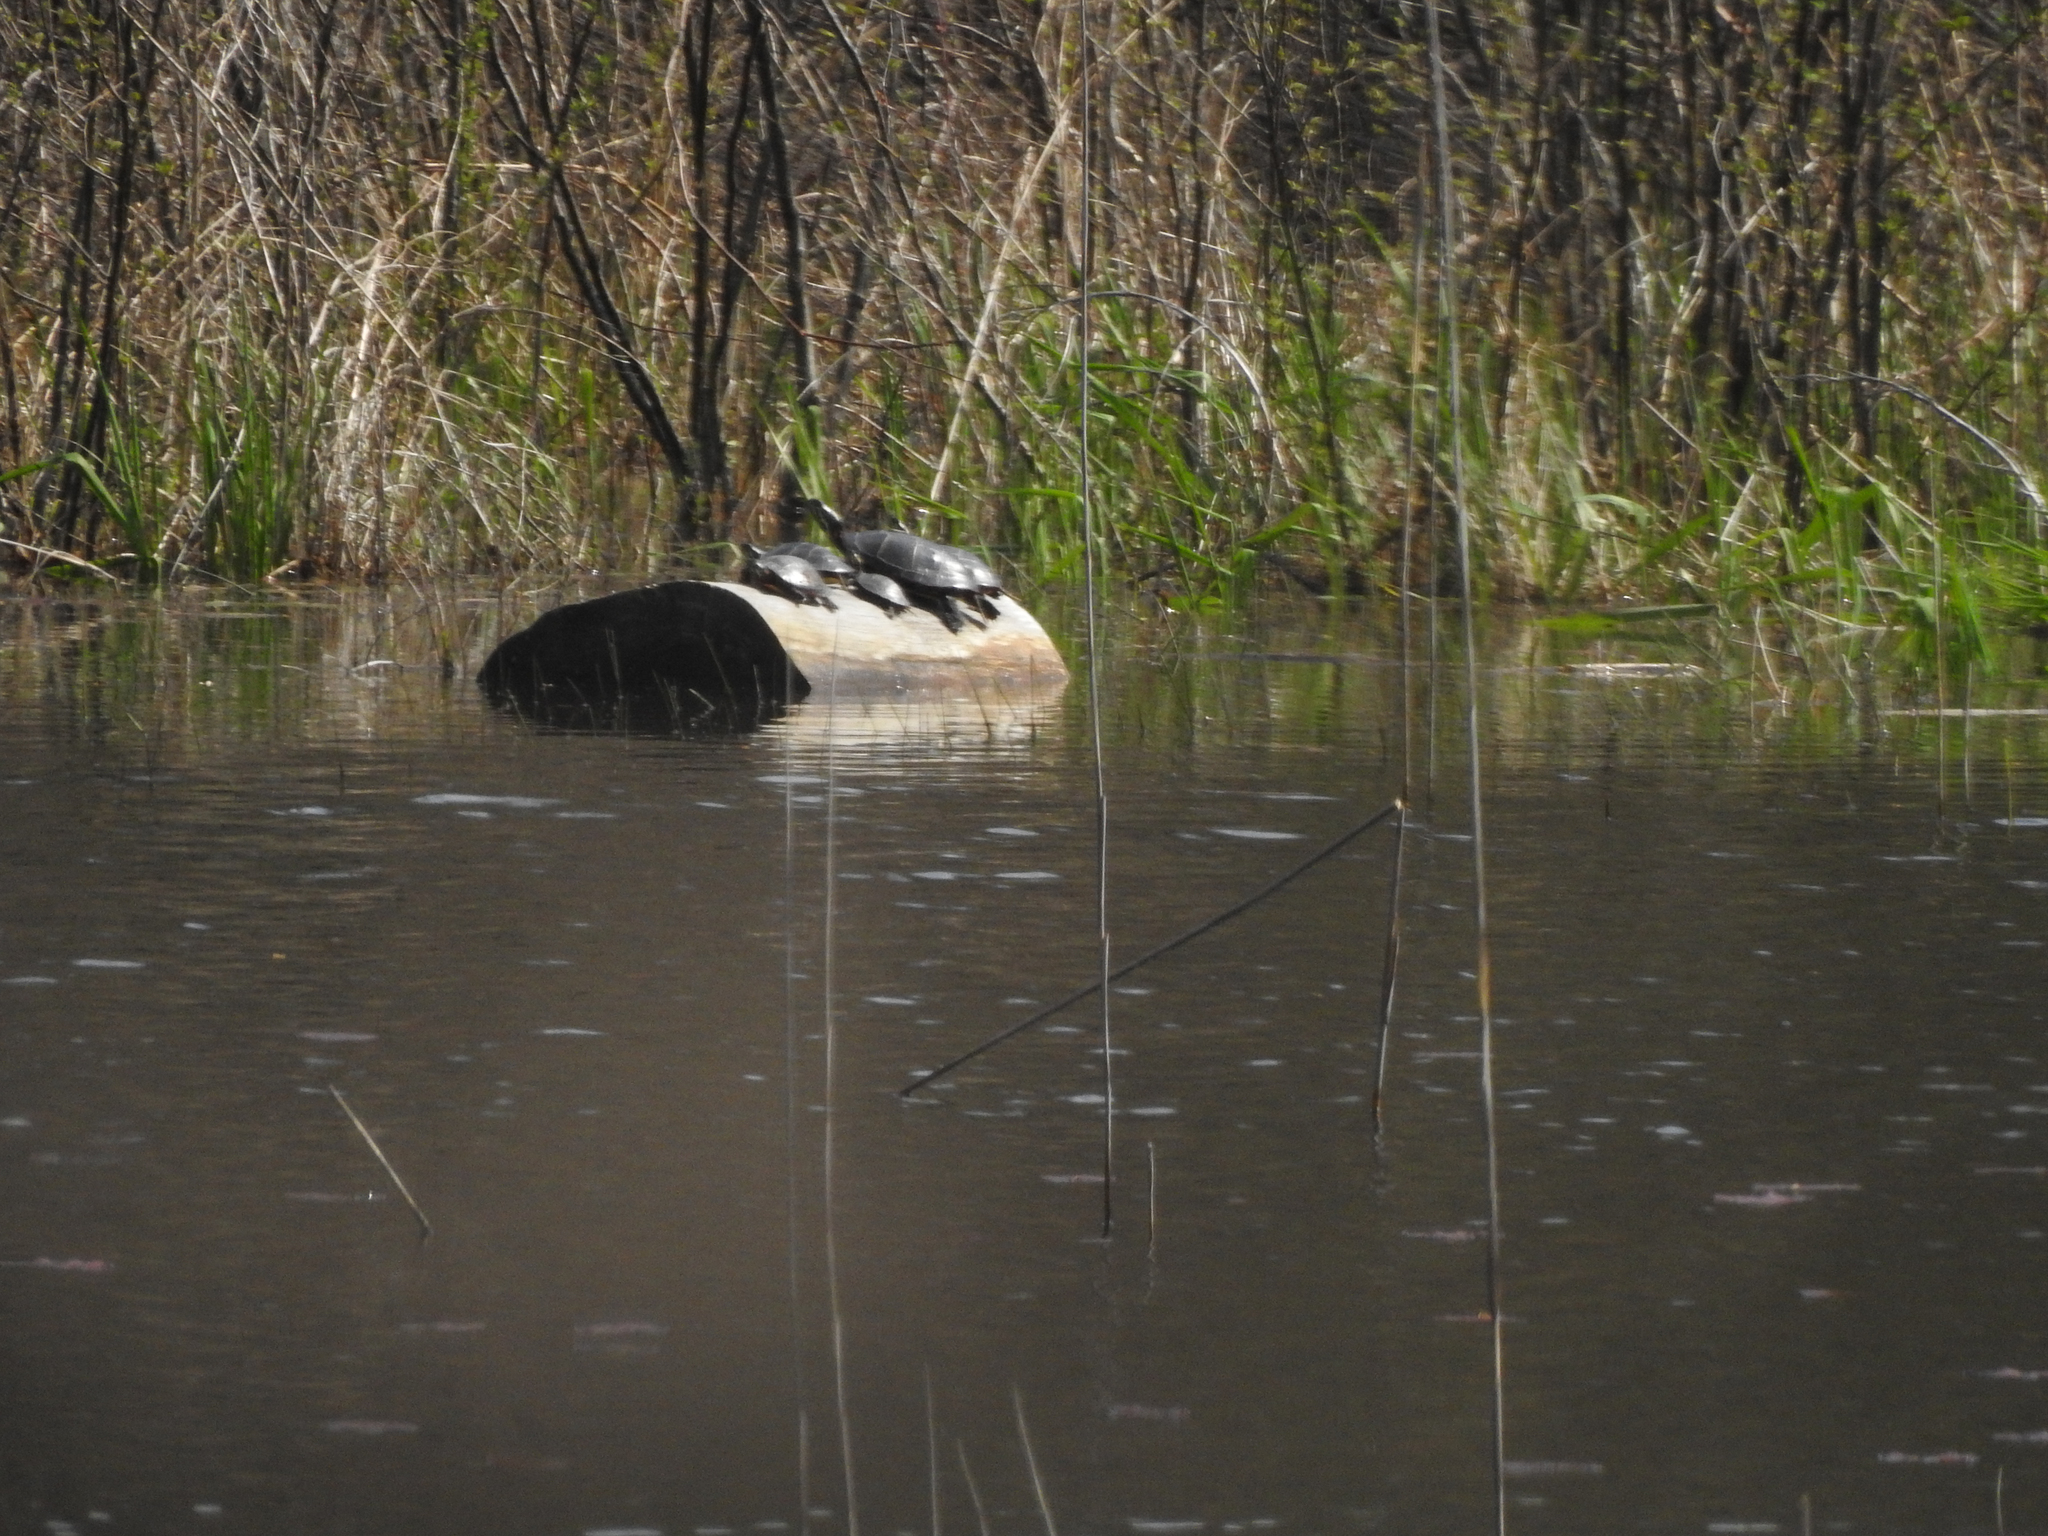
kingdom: Animalia
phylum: Chordata
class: Testudines
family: Emydidae
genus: Chrysemys
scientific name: Chrysemys picta
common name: Painted turtle
